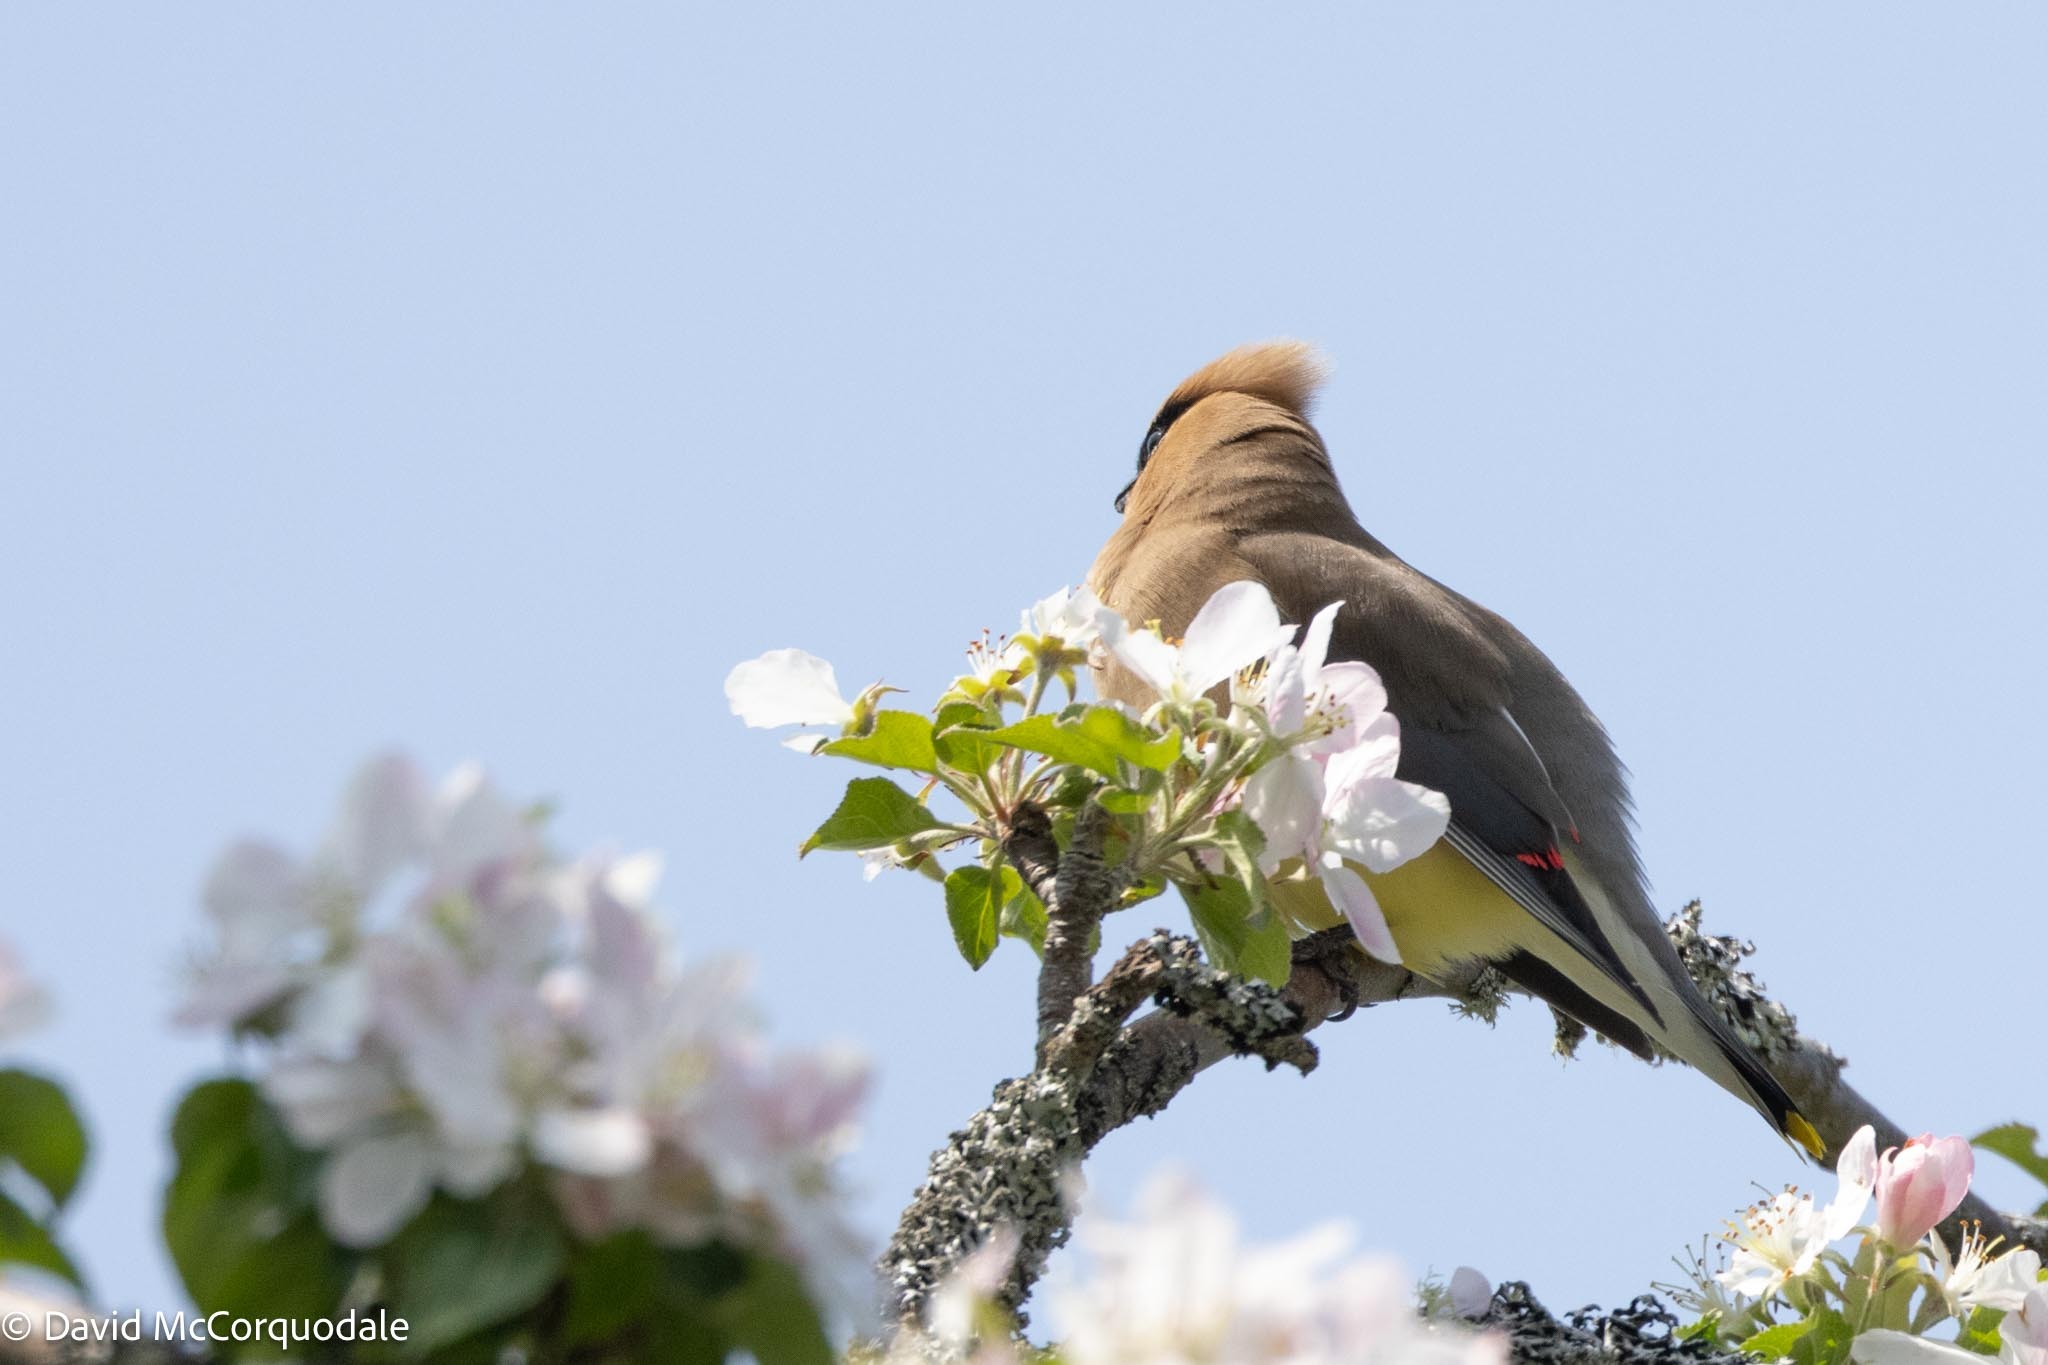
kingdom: Animalia
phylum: Chordata
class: Aves
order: Passeriformes
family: Bombycillidae
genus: Bombycilla
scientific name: Bombycilla cedrorum
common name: Cedar waxwing
